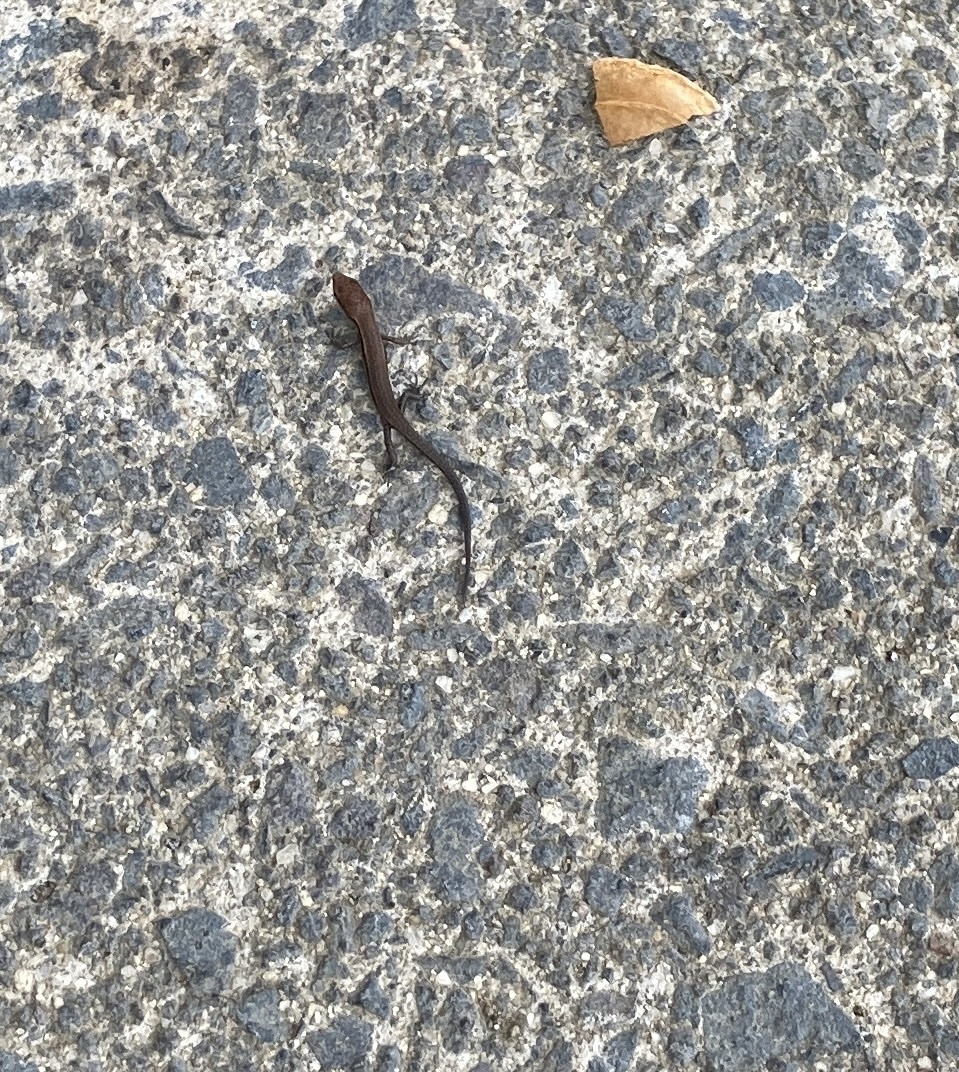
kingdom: Animalia
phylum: Chordata
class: Squamata
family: Scincidae
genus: Lampropholis
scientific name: Lampropholis delicata
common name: Plague skink
